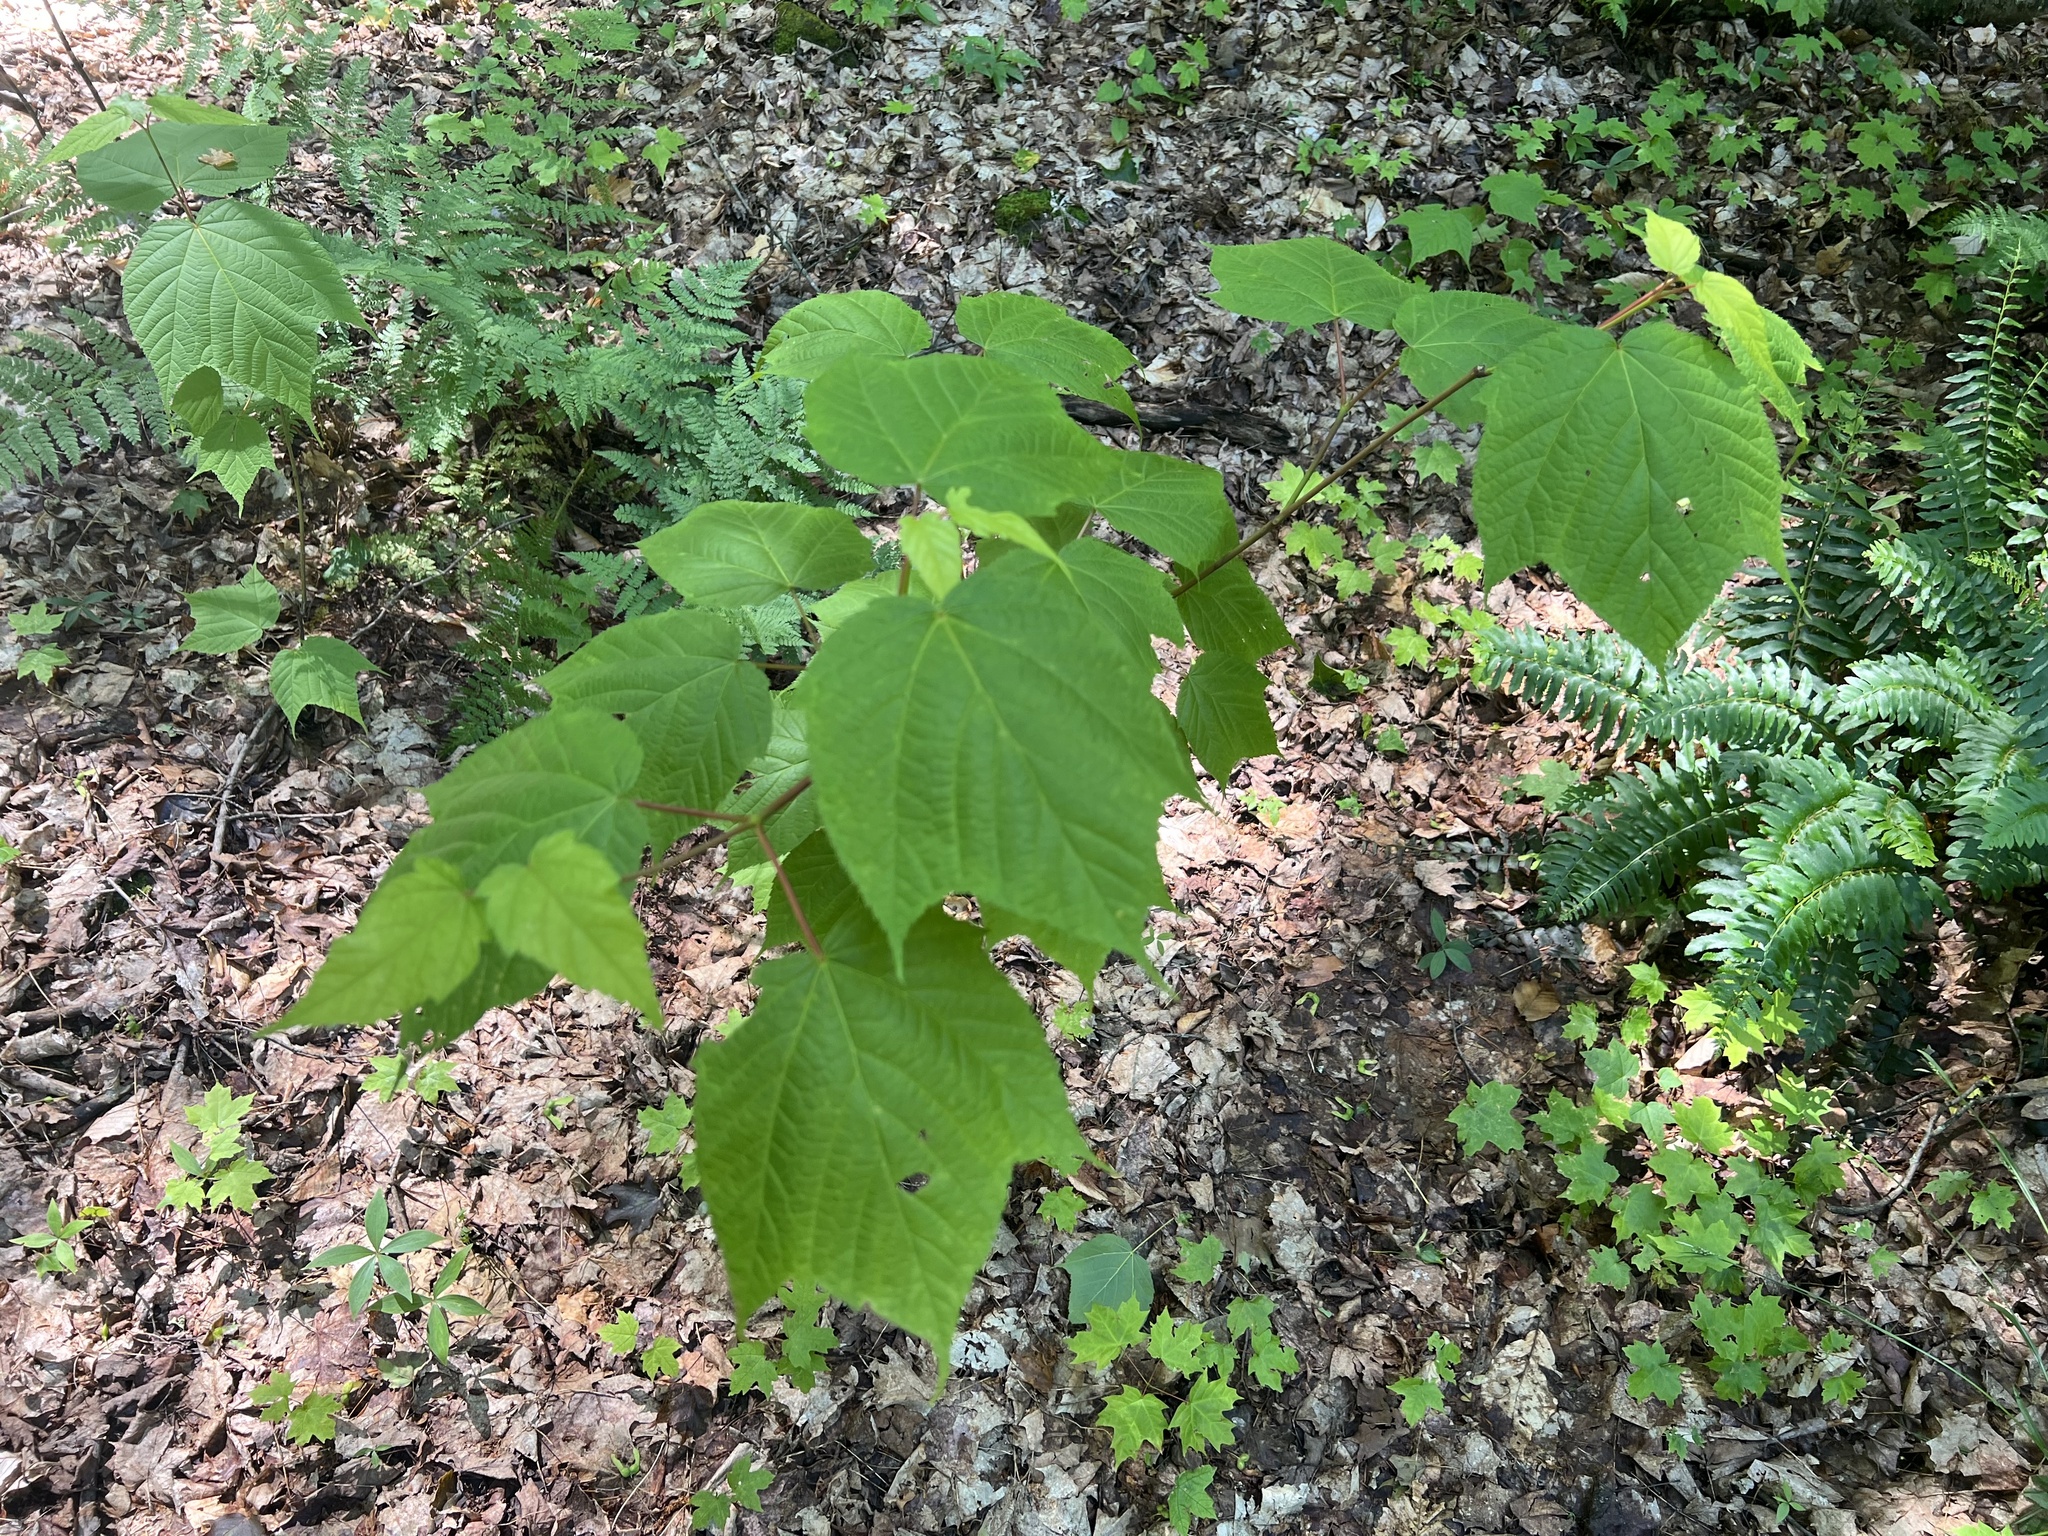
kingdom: Plantae
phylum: Tracheophyta
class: Magnoliopsida
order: Sapindales
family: Sapindaceae
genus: Acer
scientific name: Acer pensylvanicum
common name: Moosewood
